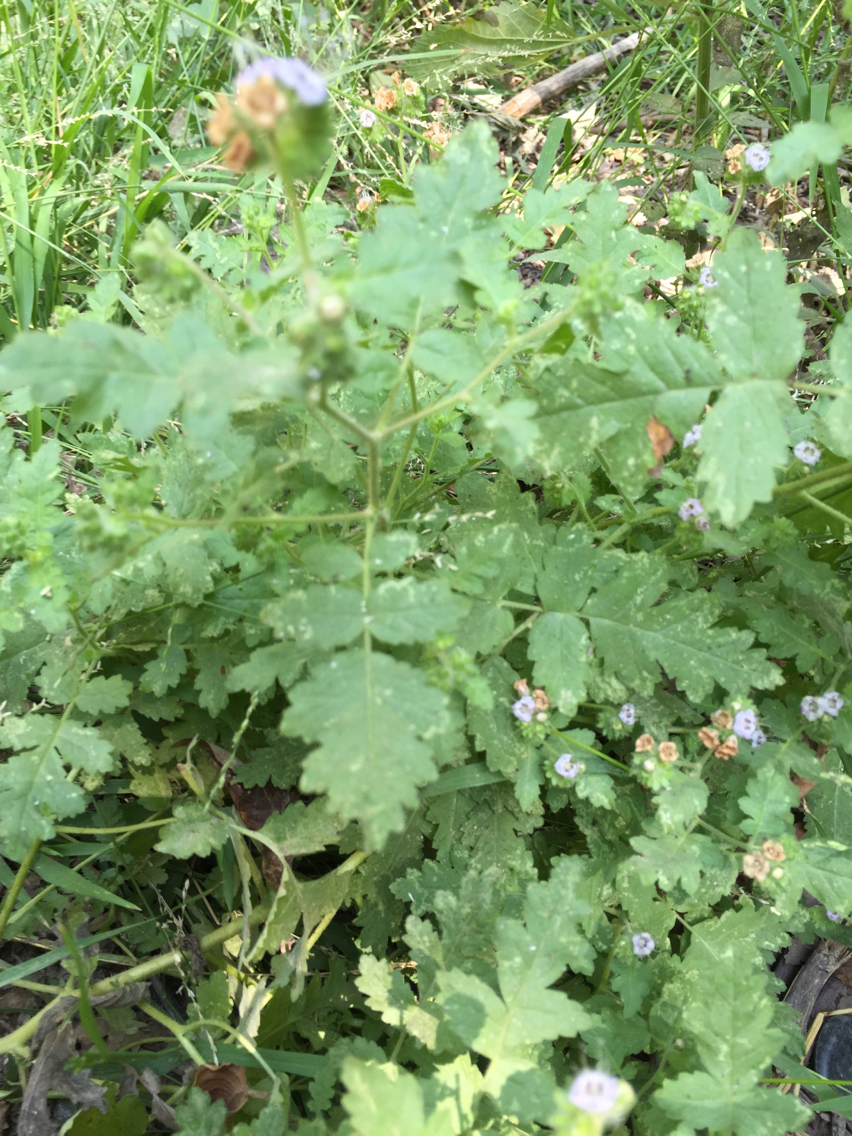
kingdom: Plantae
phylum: Tracheophyta
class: Magnoliopsida
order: Boraginales
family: Hydrophyllaceae
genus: Phacelia
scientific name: Phacelia ramosissima
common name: Branching phacelia
